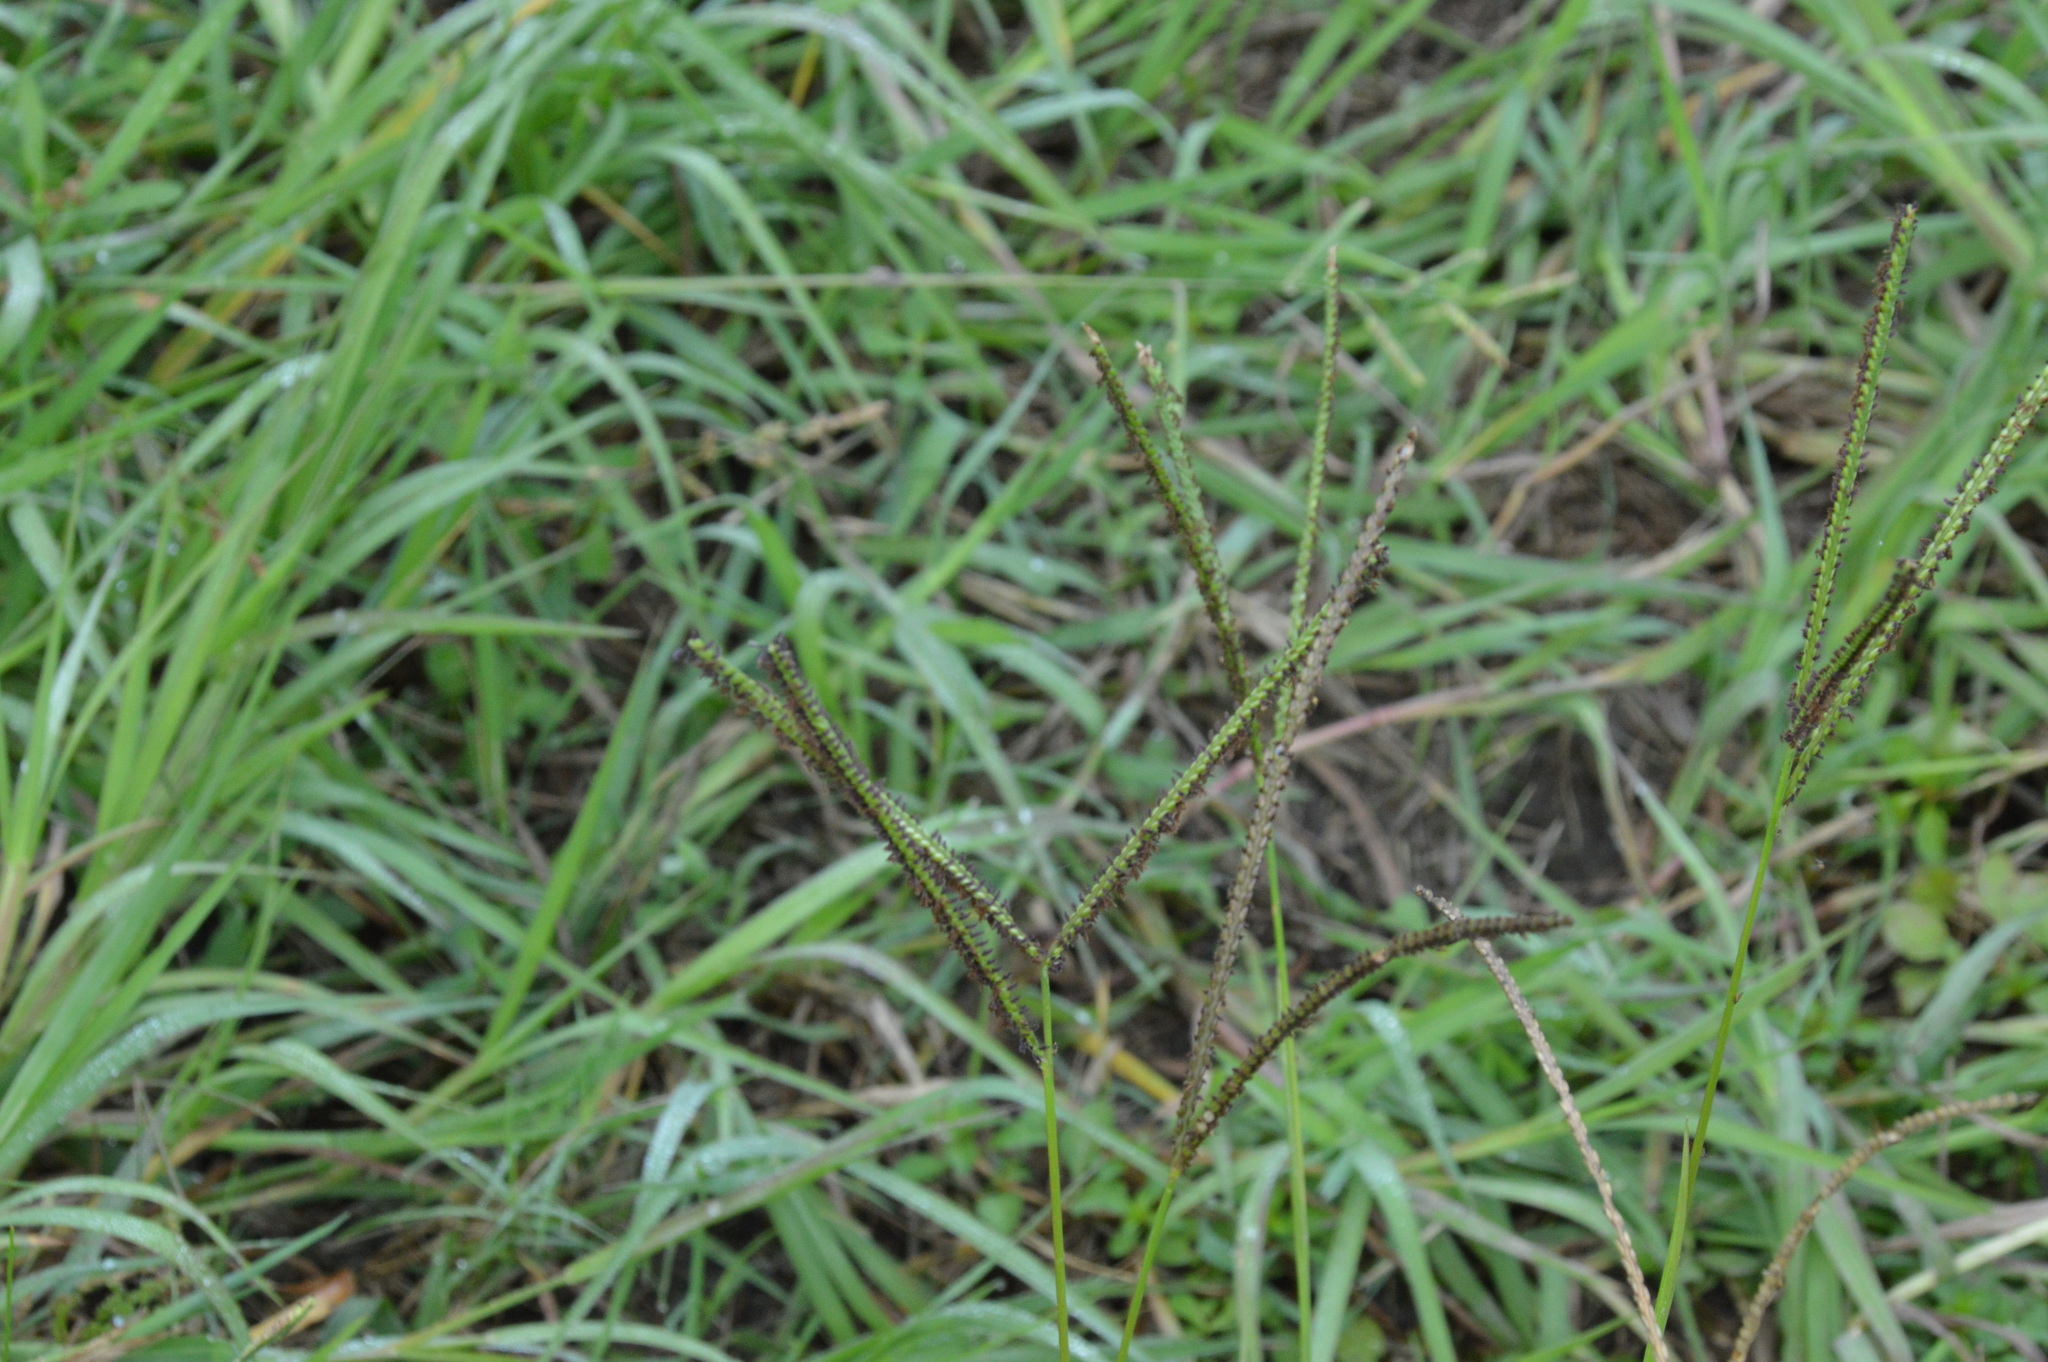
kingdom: Plantae
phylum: Tracheophyta
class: Liliopsida
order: Poales
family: Poaceae
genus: Paspalum
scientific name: Paspalum notatum
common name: Bahiagrass
